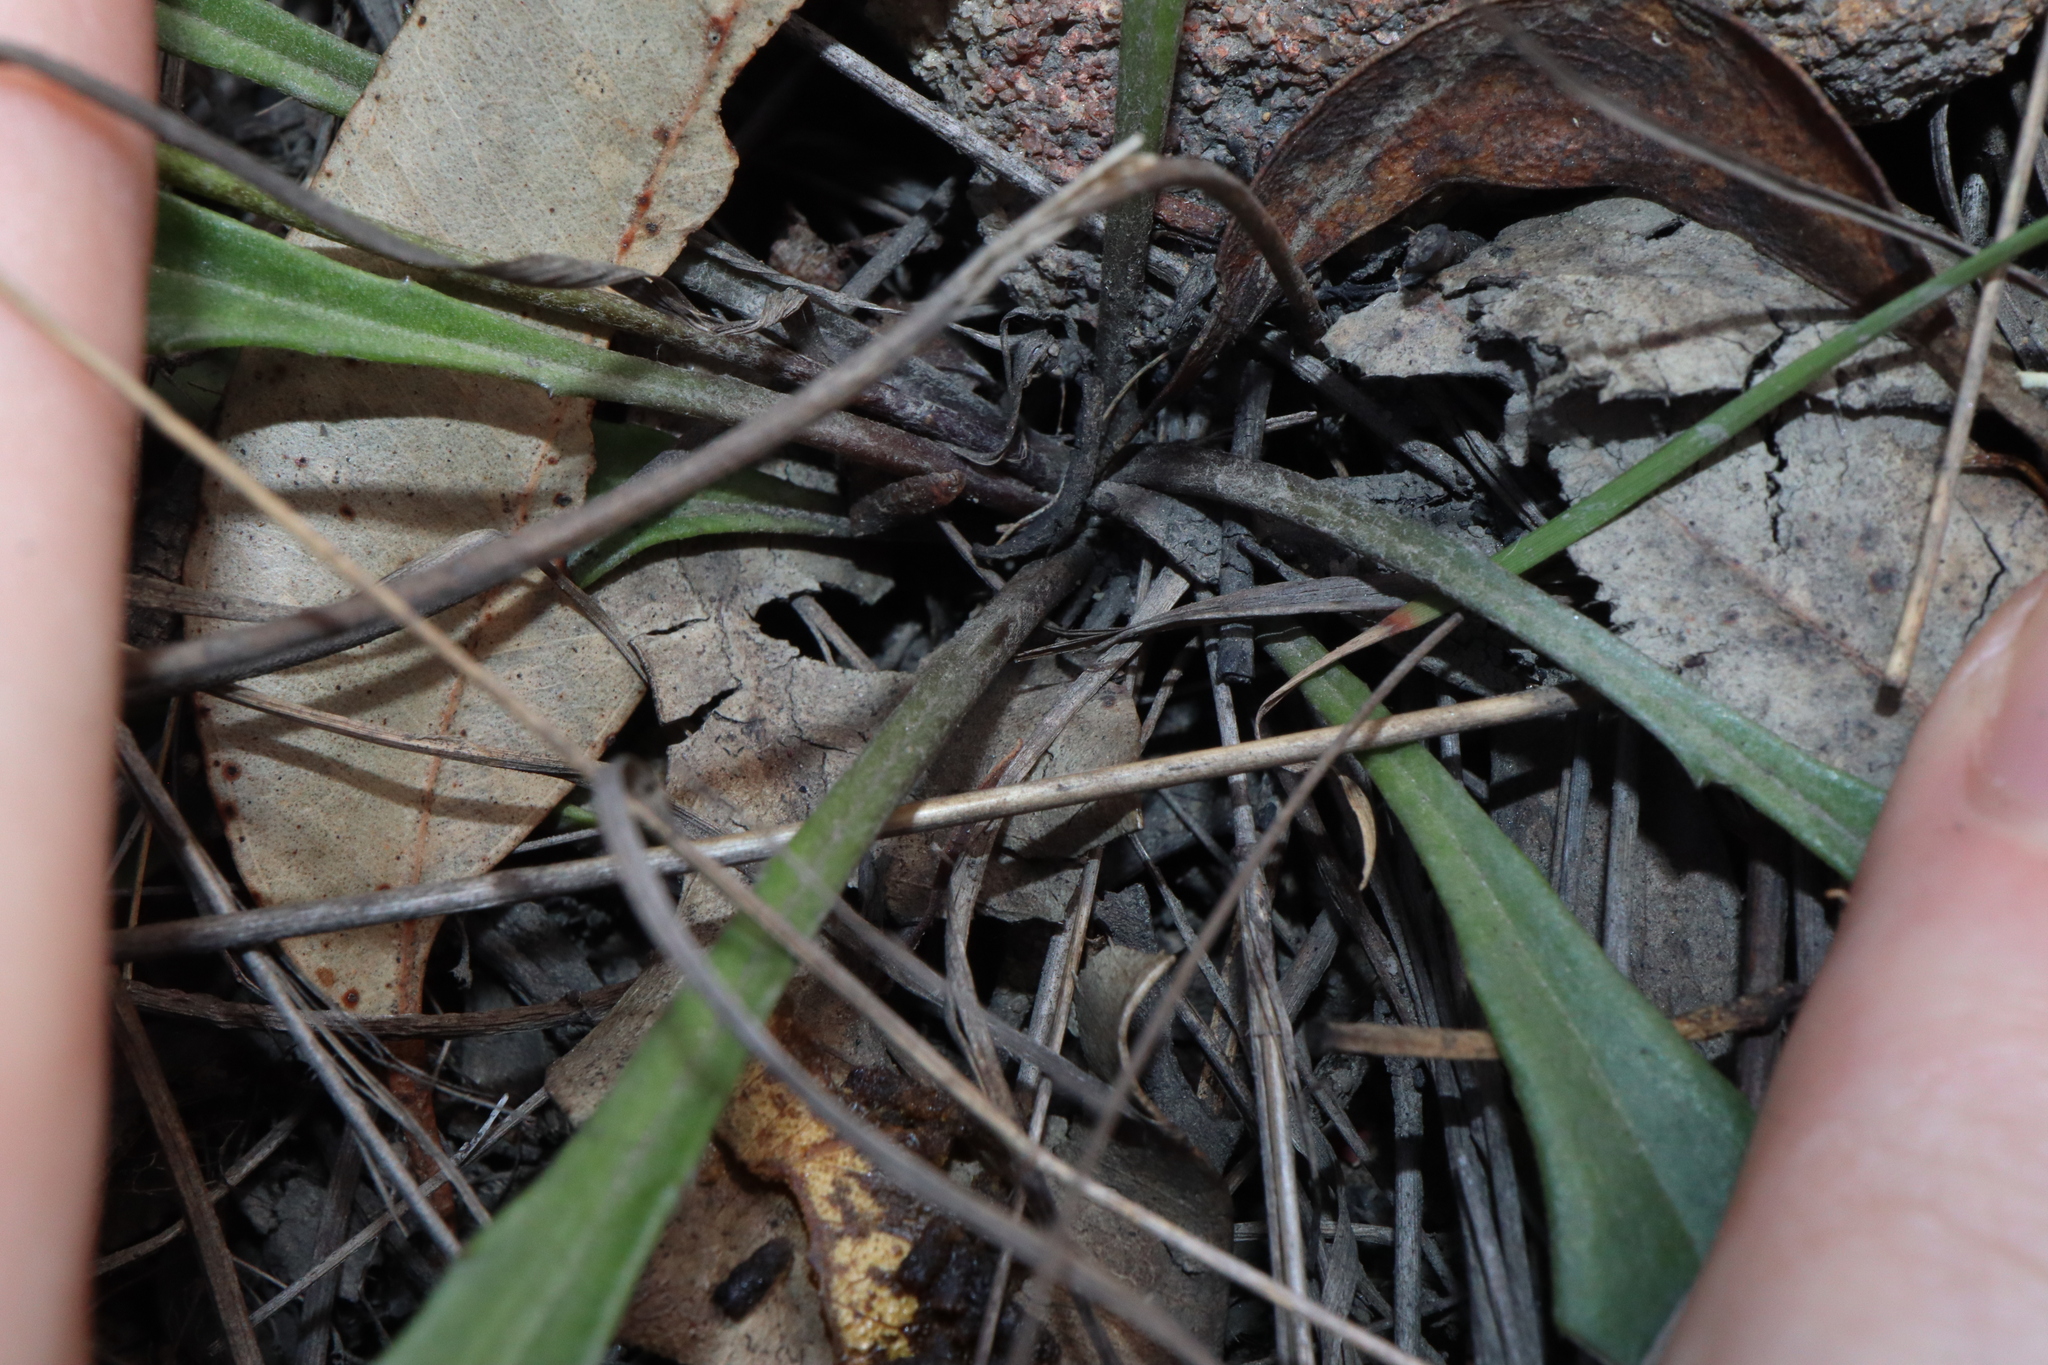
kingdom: Plantae
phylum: Tracheophyta
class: Magnoliopsida
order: Asterales
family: Goodeniaceae
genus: Goodenia
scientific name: Goodenia bellidifolia
